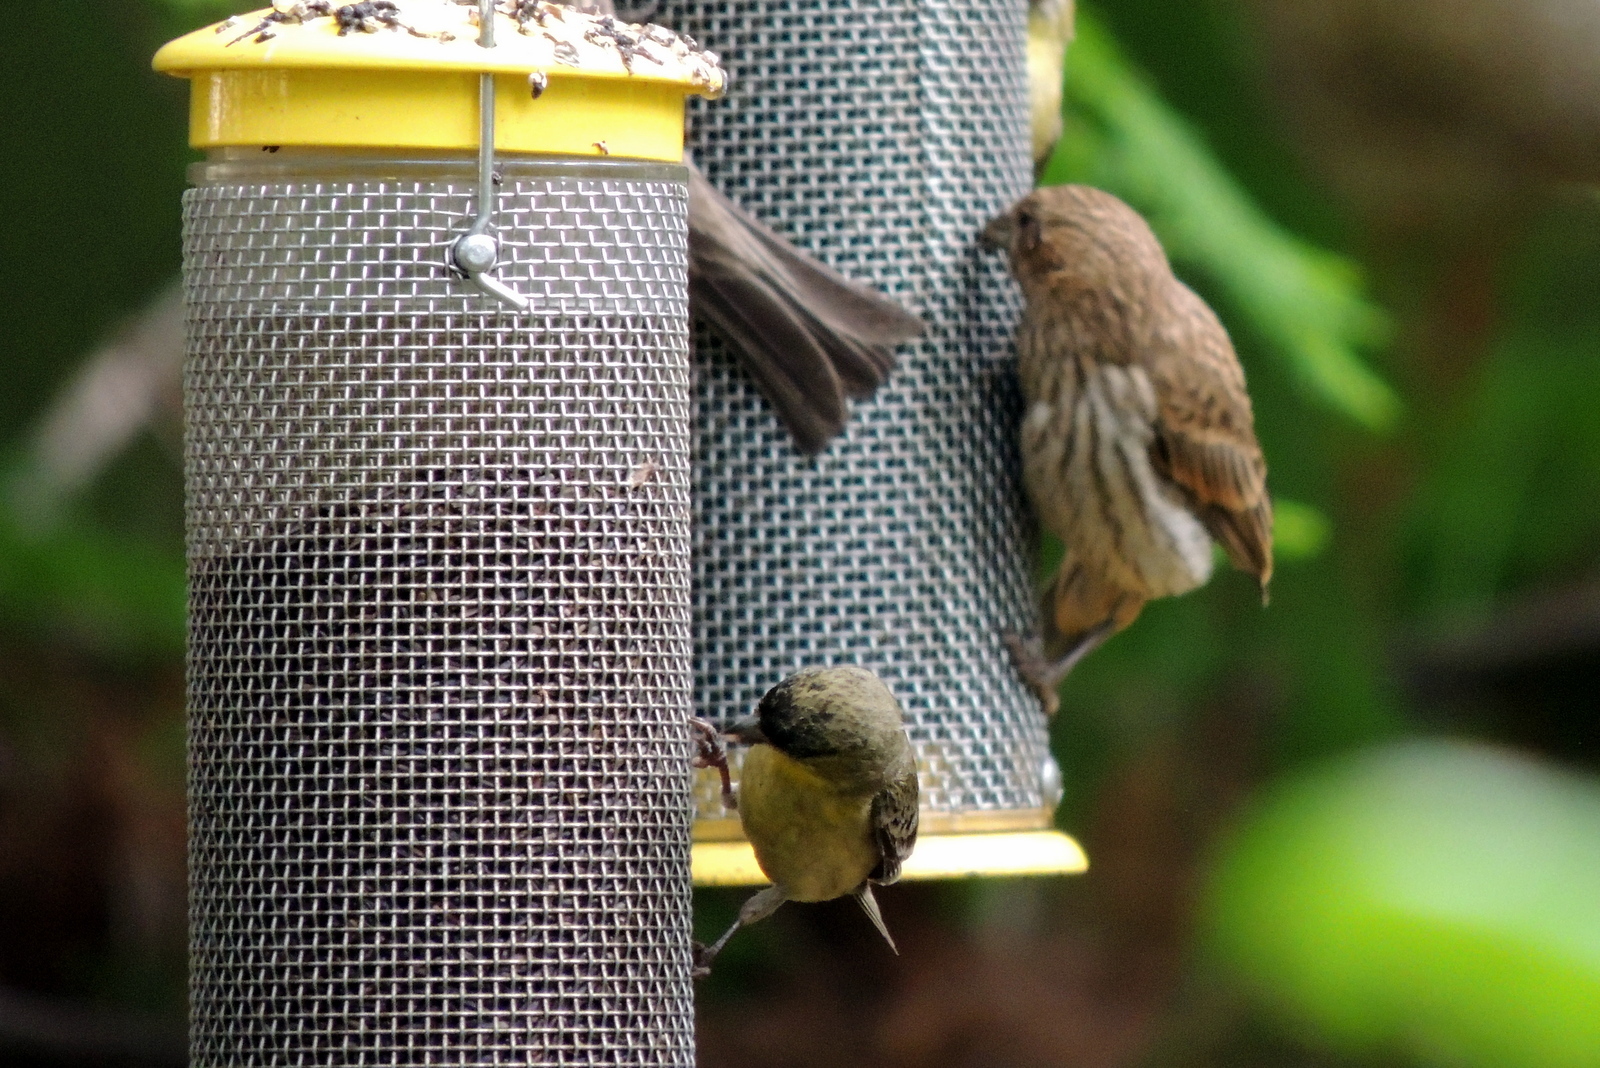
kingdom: Animalia
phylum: Chordata
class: Aves
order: Passeriformes
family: Fringillidae
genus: Spinus
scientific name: Spinus psaltria
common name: Lesser goldfinch
